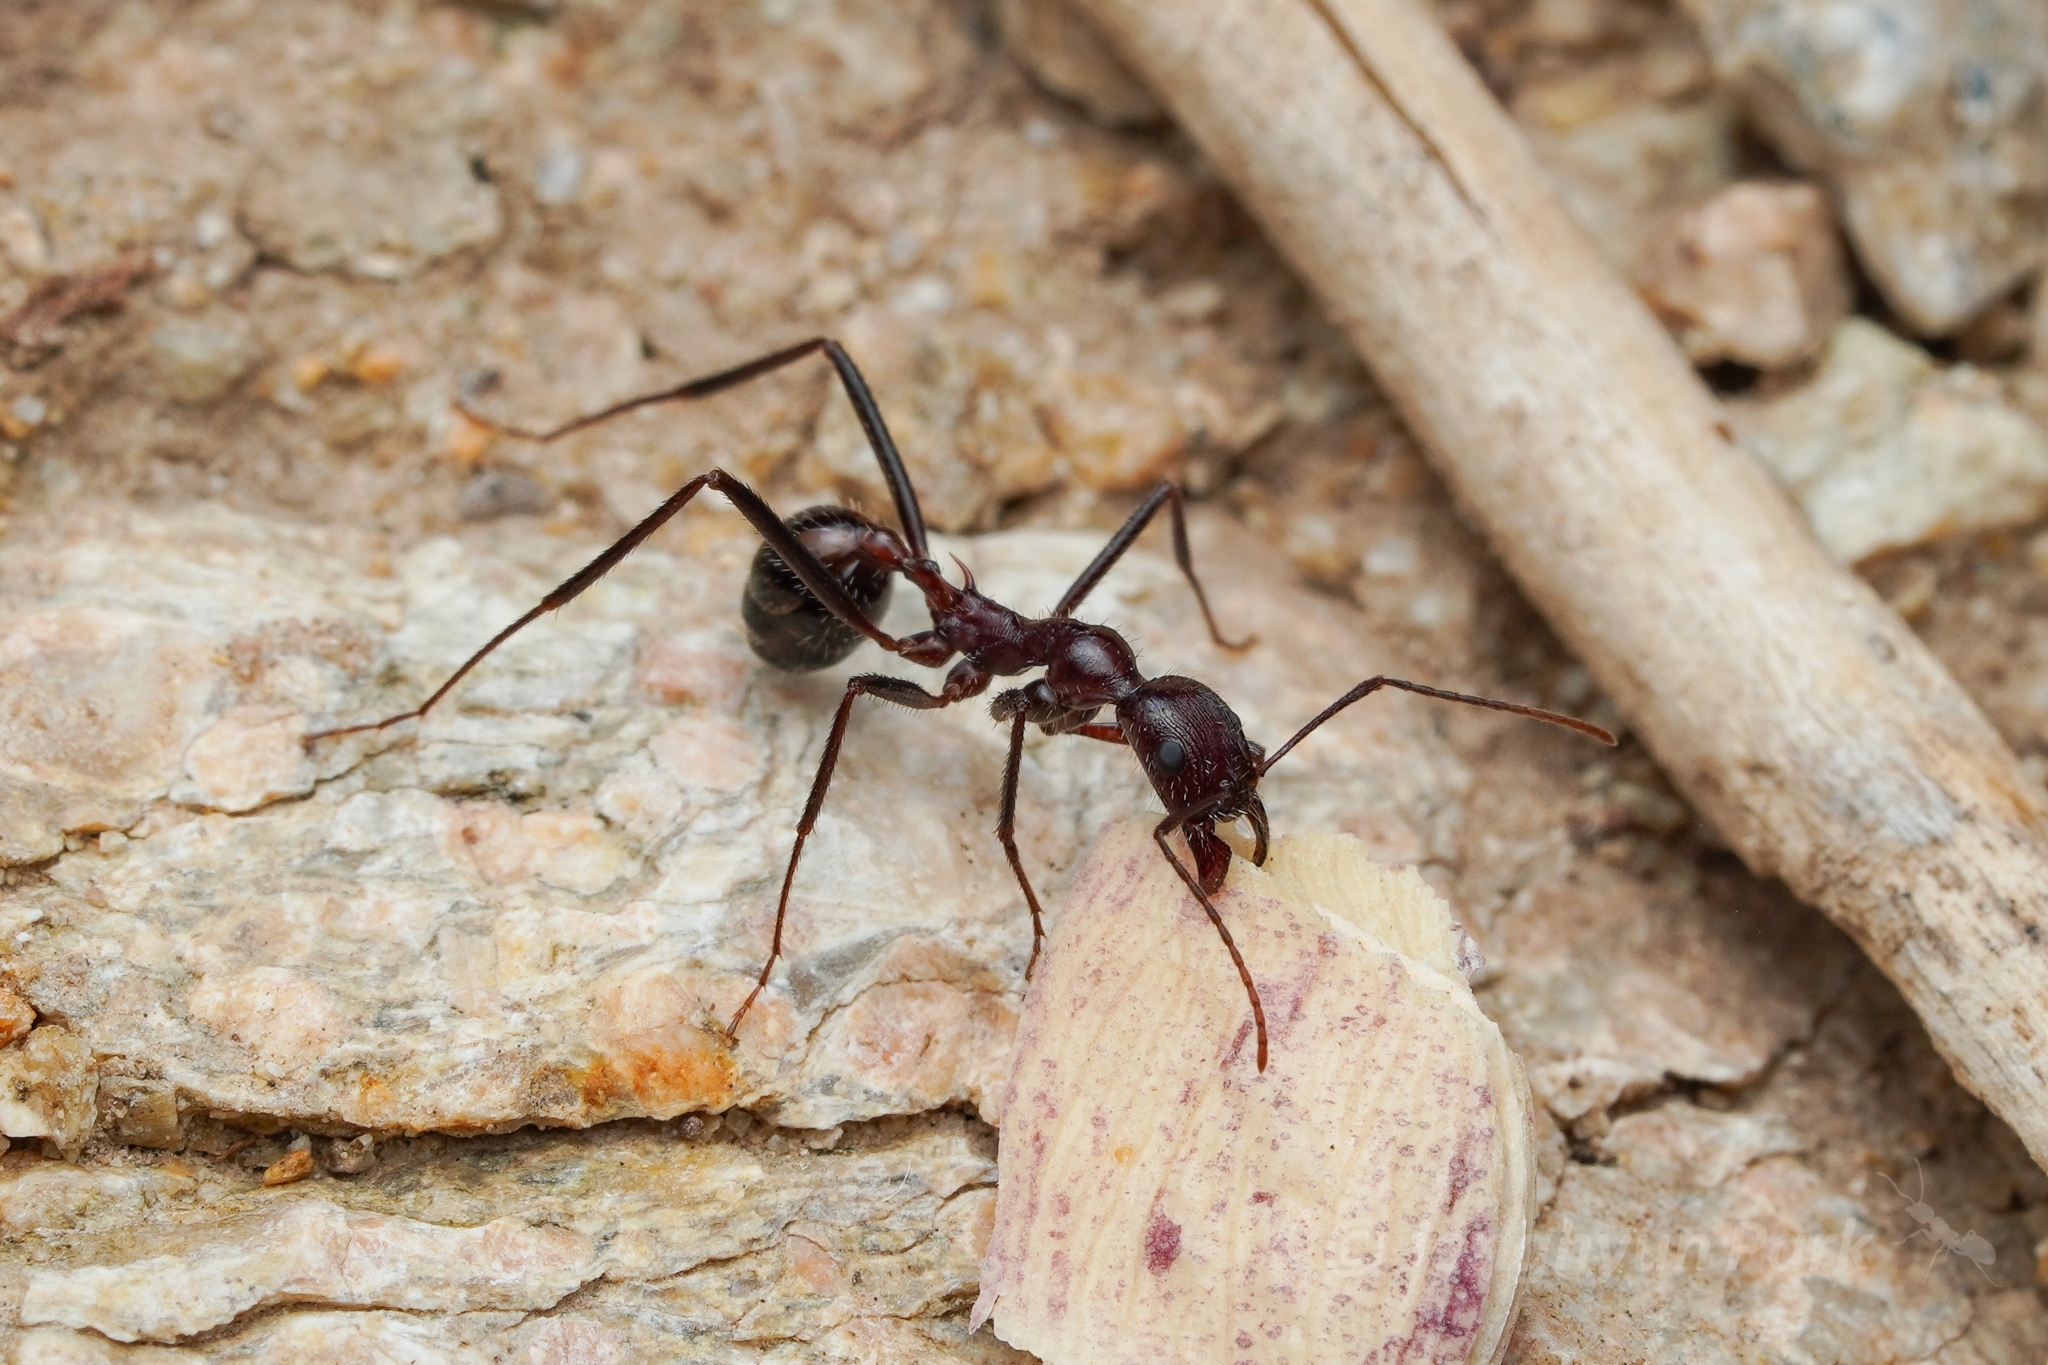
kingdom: Animalia
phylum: Arthropoda
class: Insecta
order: Hymenoptera
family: Formicidae
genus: Novomessor
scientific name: Novomessor cockerelli
